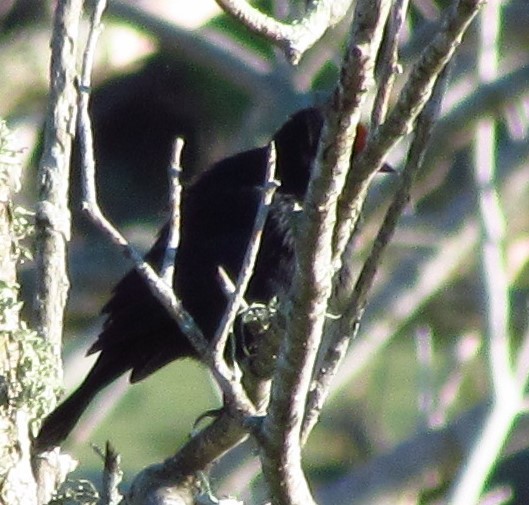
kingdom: Animalia
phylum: Chordata
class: Aves
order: Passeriformes
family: Icteridae
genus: Chrysomus
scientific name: Chrysomus ruficapillus
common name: Chestnut-capped blackbird
